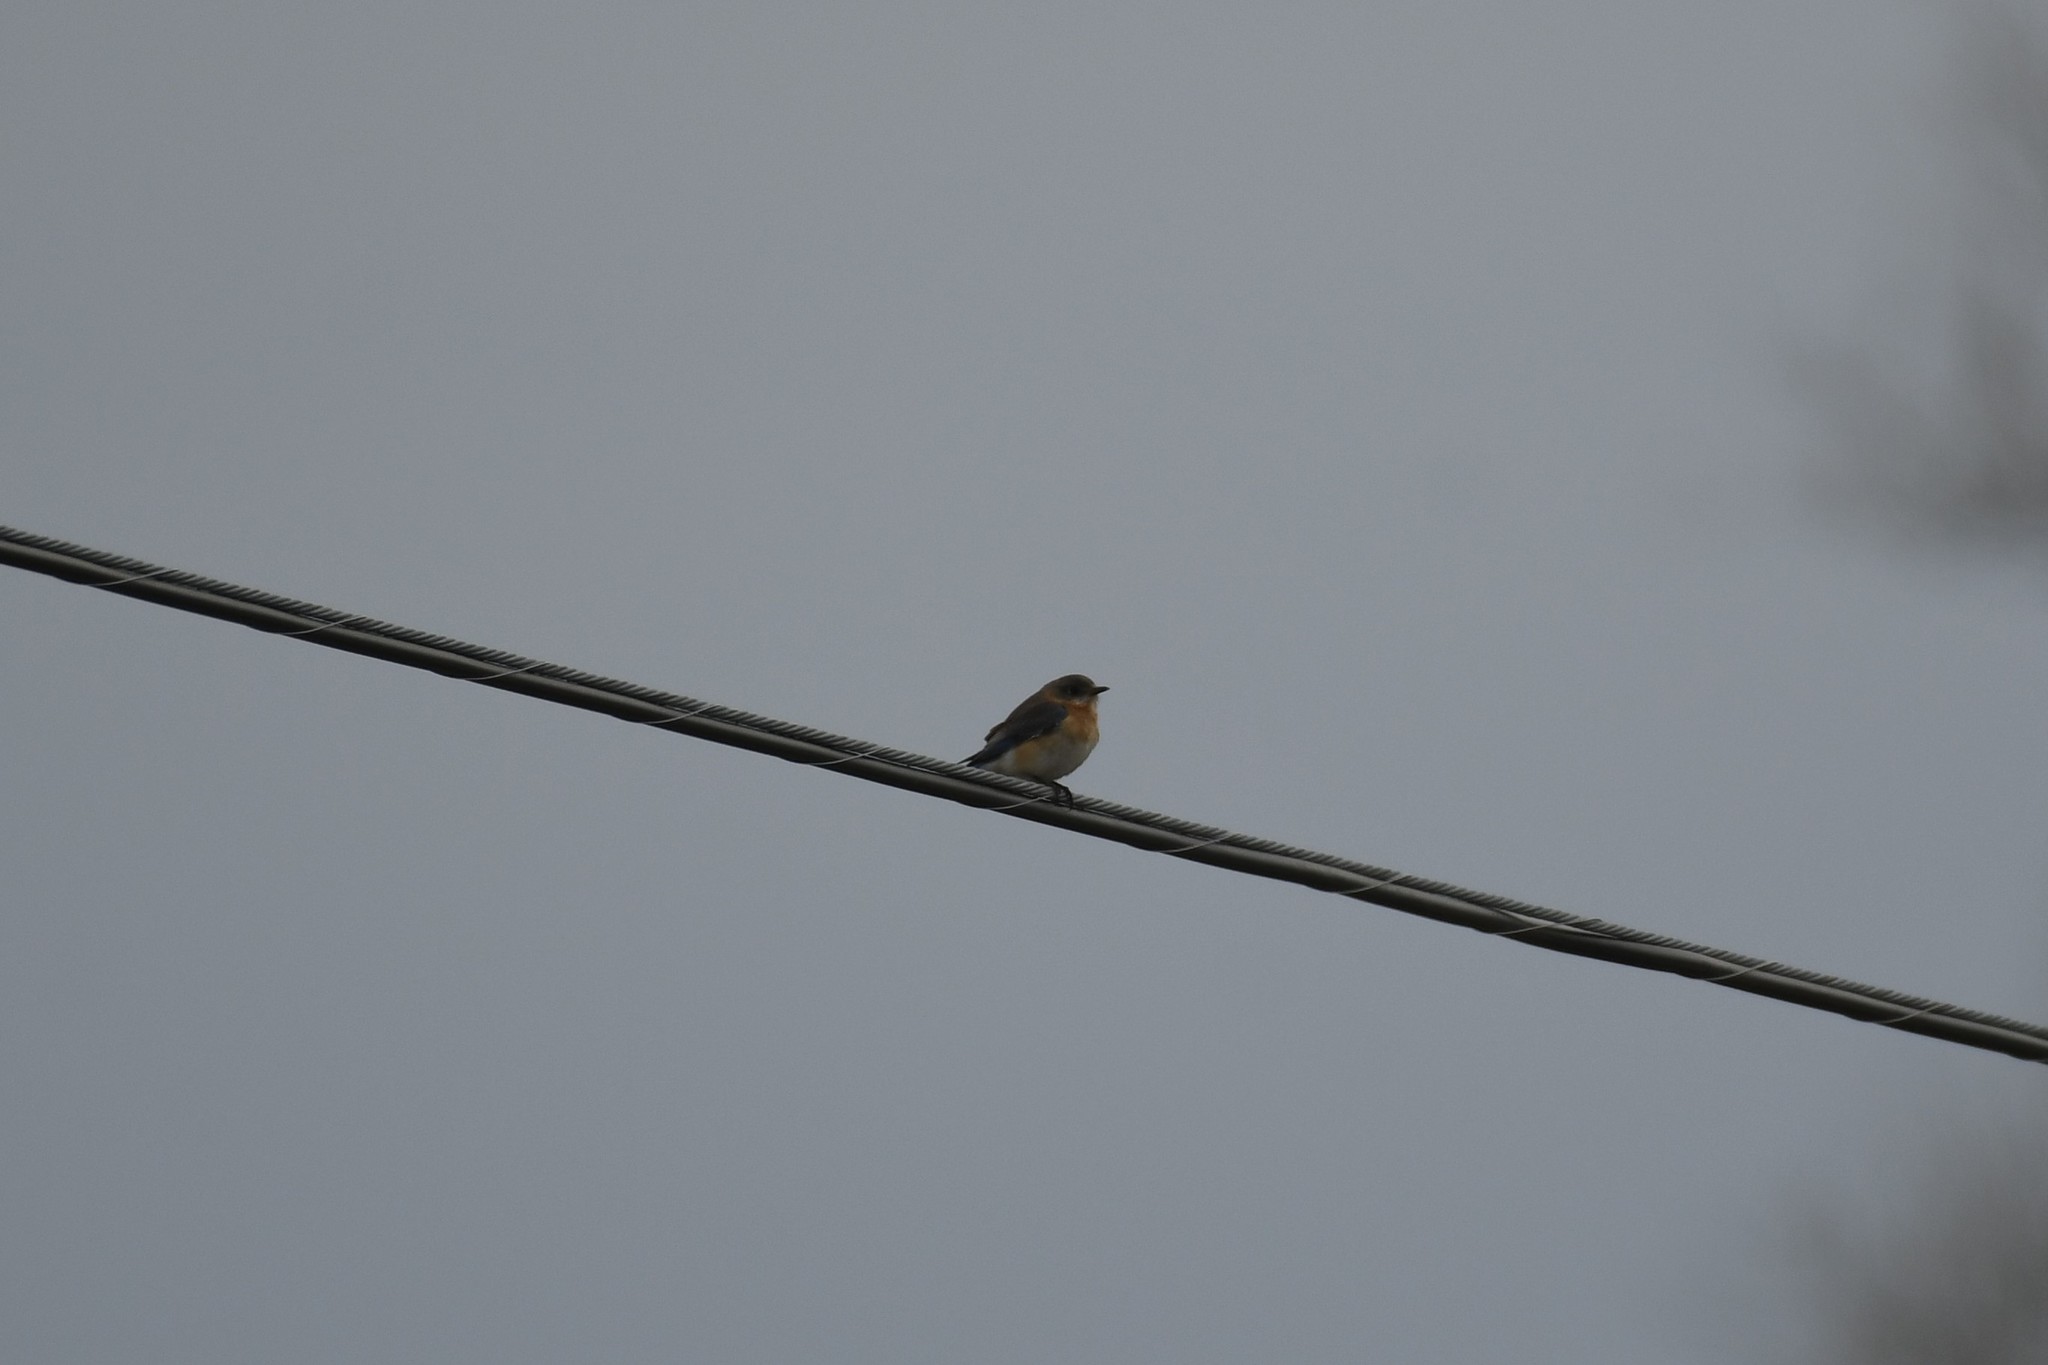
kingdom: Animalia
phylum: Chordata
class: Aves
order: Passeriformes
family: Turdidae
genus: Sialia
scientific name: Sialia sialis
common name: Eastern bluebird
